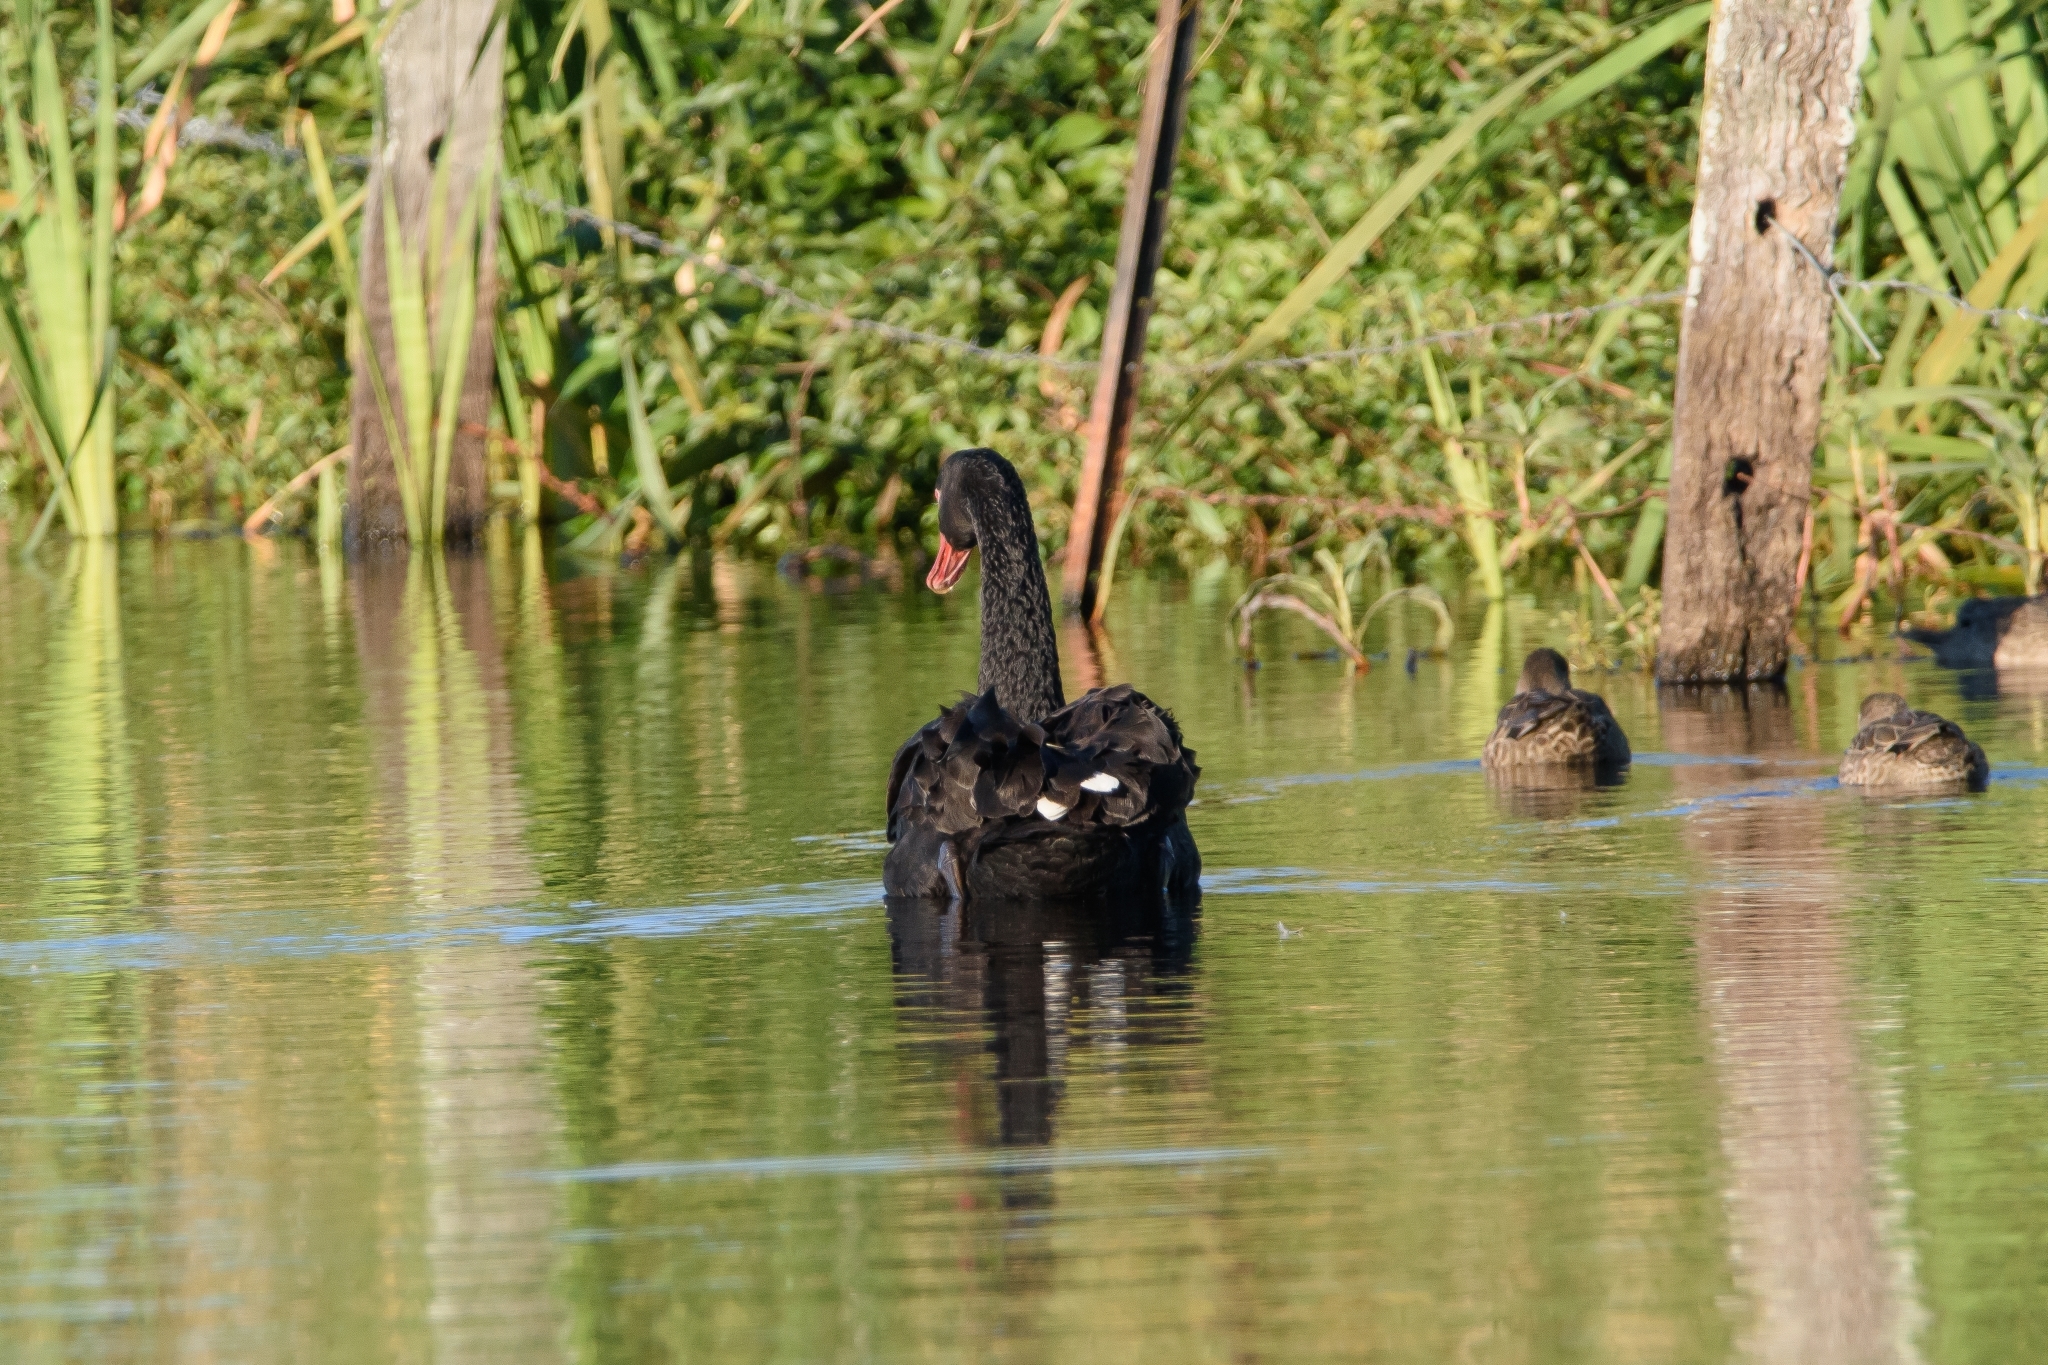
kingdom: Animalia
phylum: Chordata
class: Aves
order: Anseriformes
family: Anatidae
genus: Cygnus
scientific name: Cygnus atratus
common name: Black swan
